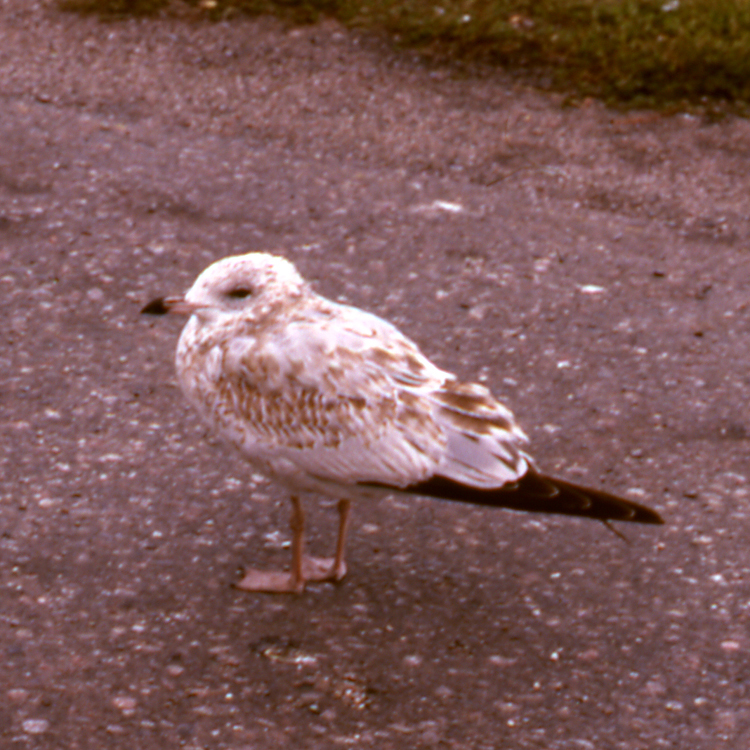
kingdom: Animalia
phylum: Chordata
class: Aves
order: Charadriiformes
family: Laridae
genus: Larus
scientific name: Larus delawarensis
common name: Ring-billed gull
